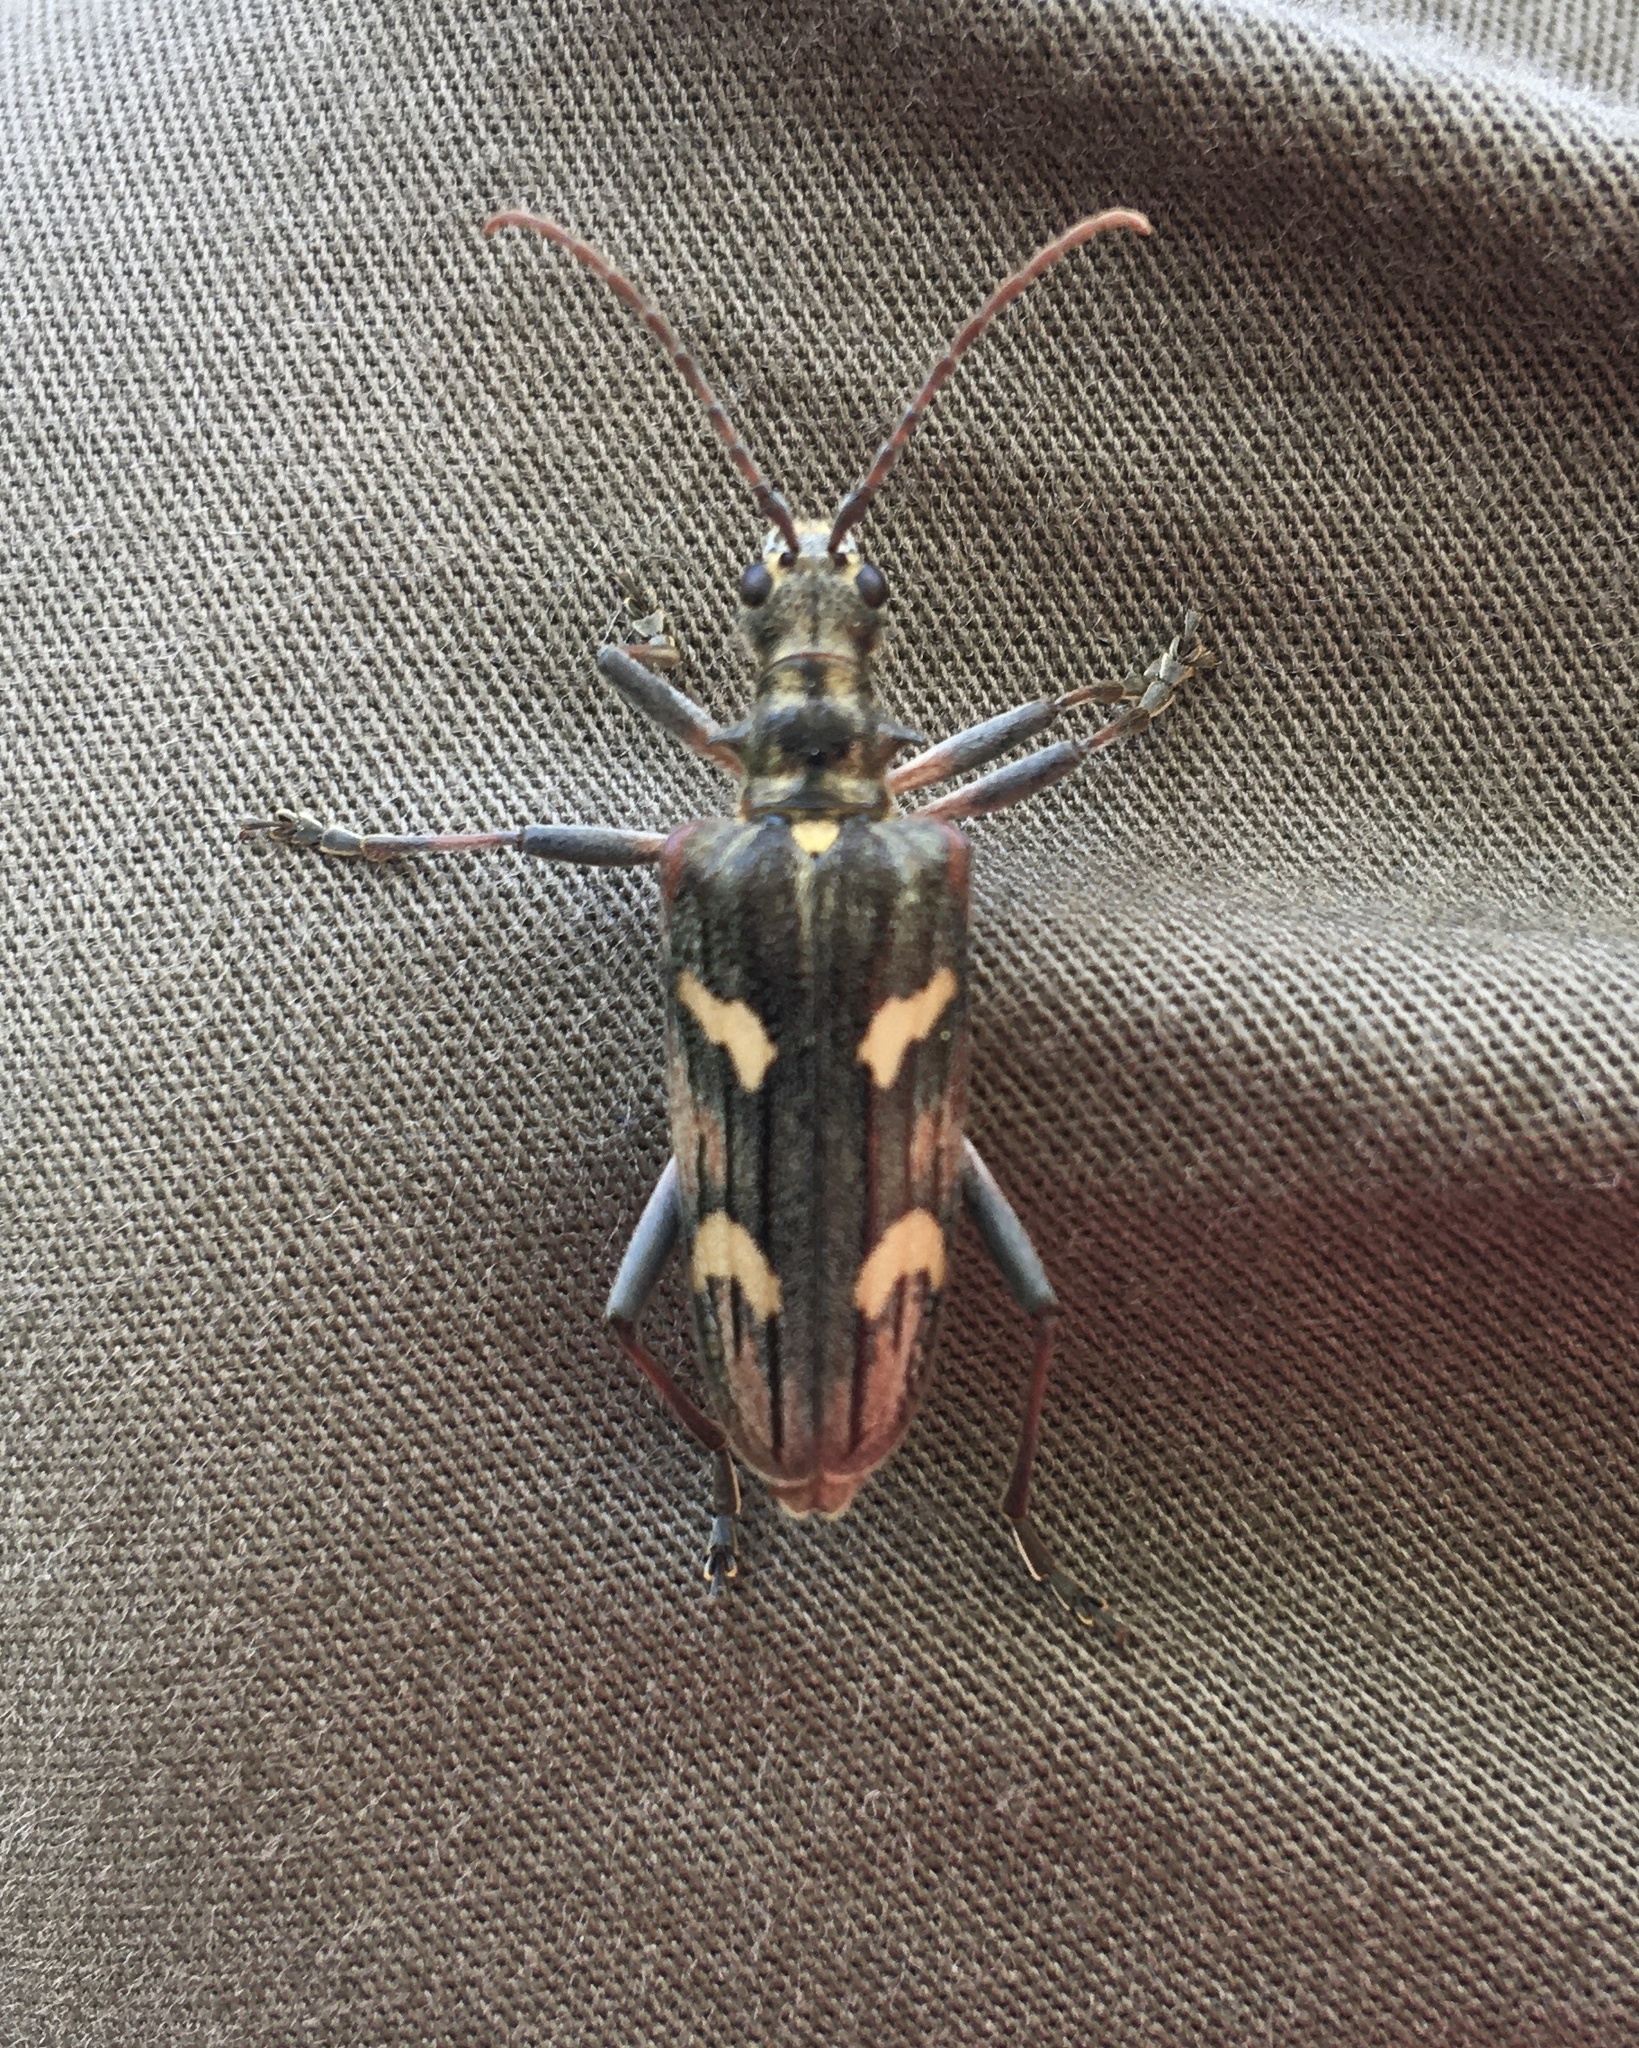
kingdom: Animalia
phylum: Arthropoda
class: Insecta
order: Coleoptera
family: Cerambycidae
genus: Rhagium
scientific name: Rhagium bifasciatum
